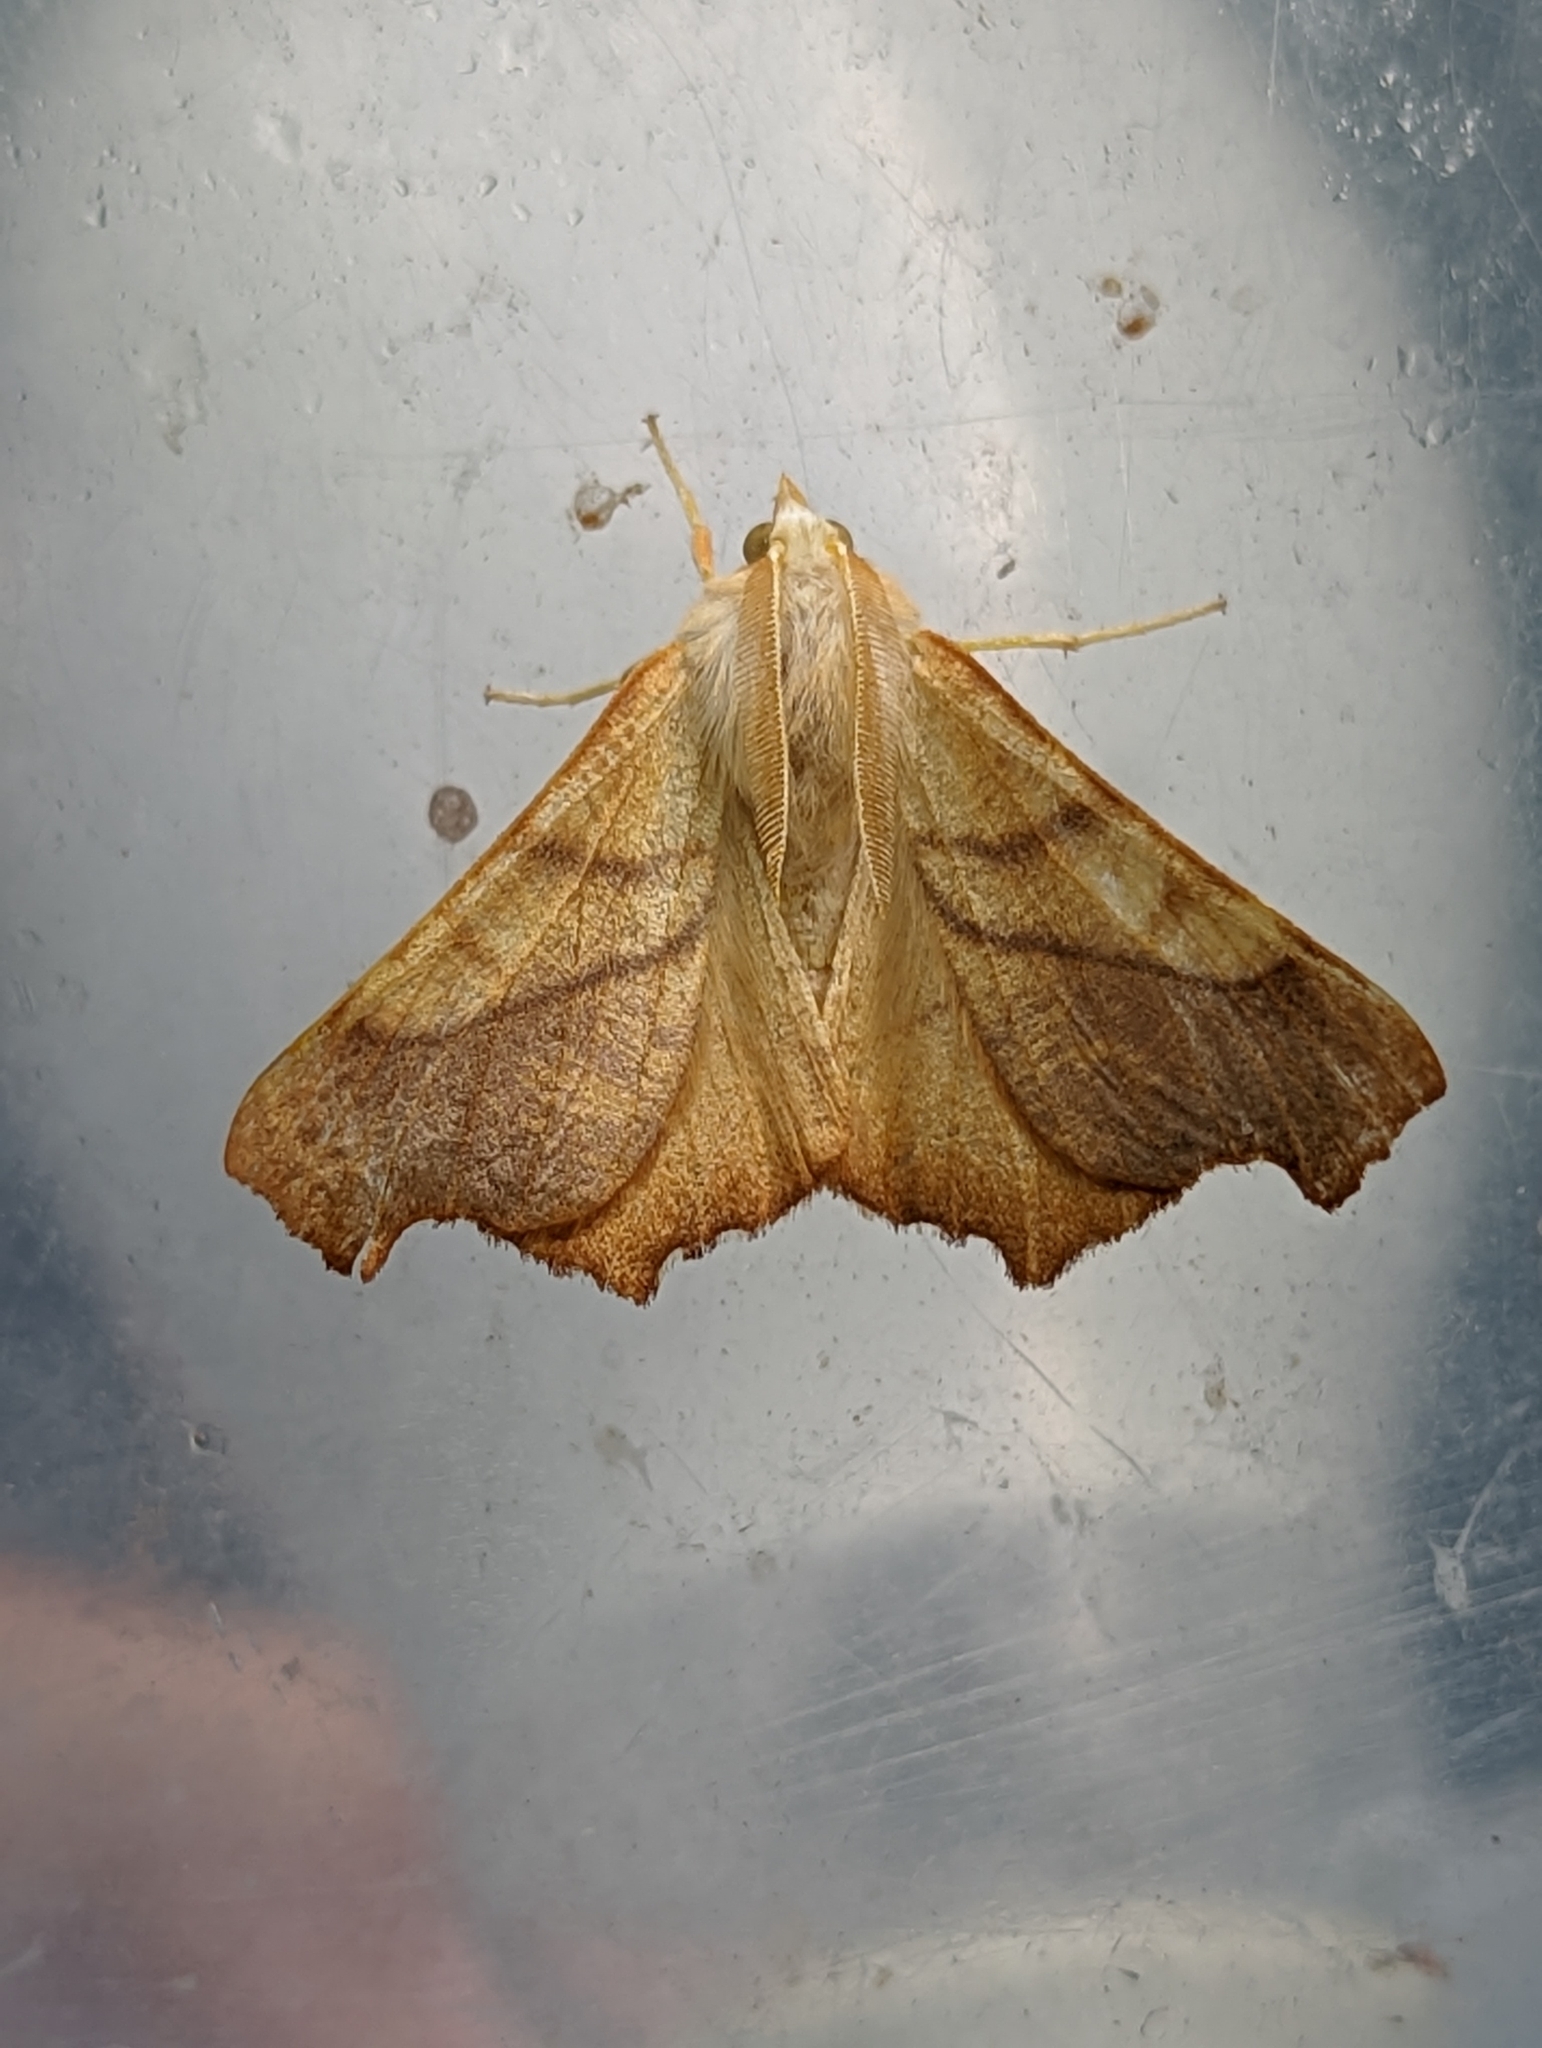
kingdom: Animalia
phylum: Arthropoda
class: Insecta
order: Lepidoptera
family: Geometridae
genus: Ennomos
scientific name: Ennomos fuscantaria
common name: Dusky thorn
